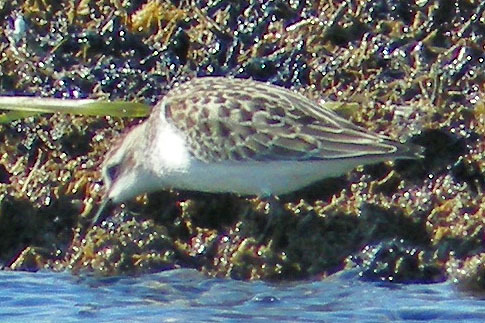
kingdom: Animalia
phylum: Chordata
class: Aves
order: Charadriiformes
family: Scolopacidae
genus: Calidris
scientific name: Calidris pusilla
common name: Semipalmated sandpiper
